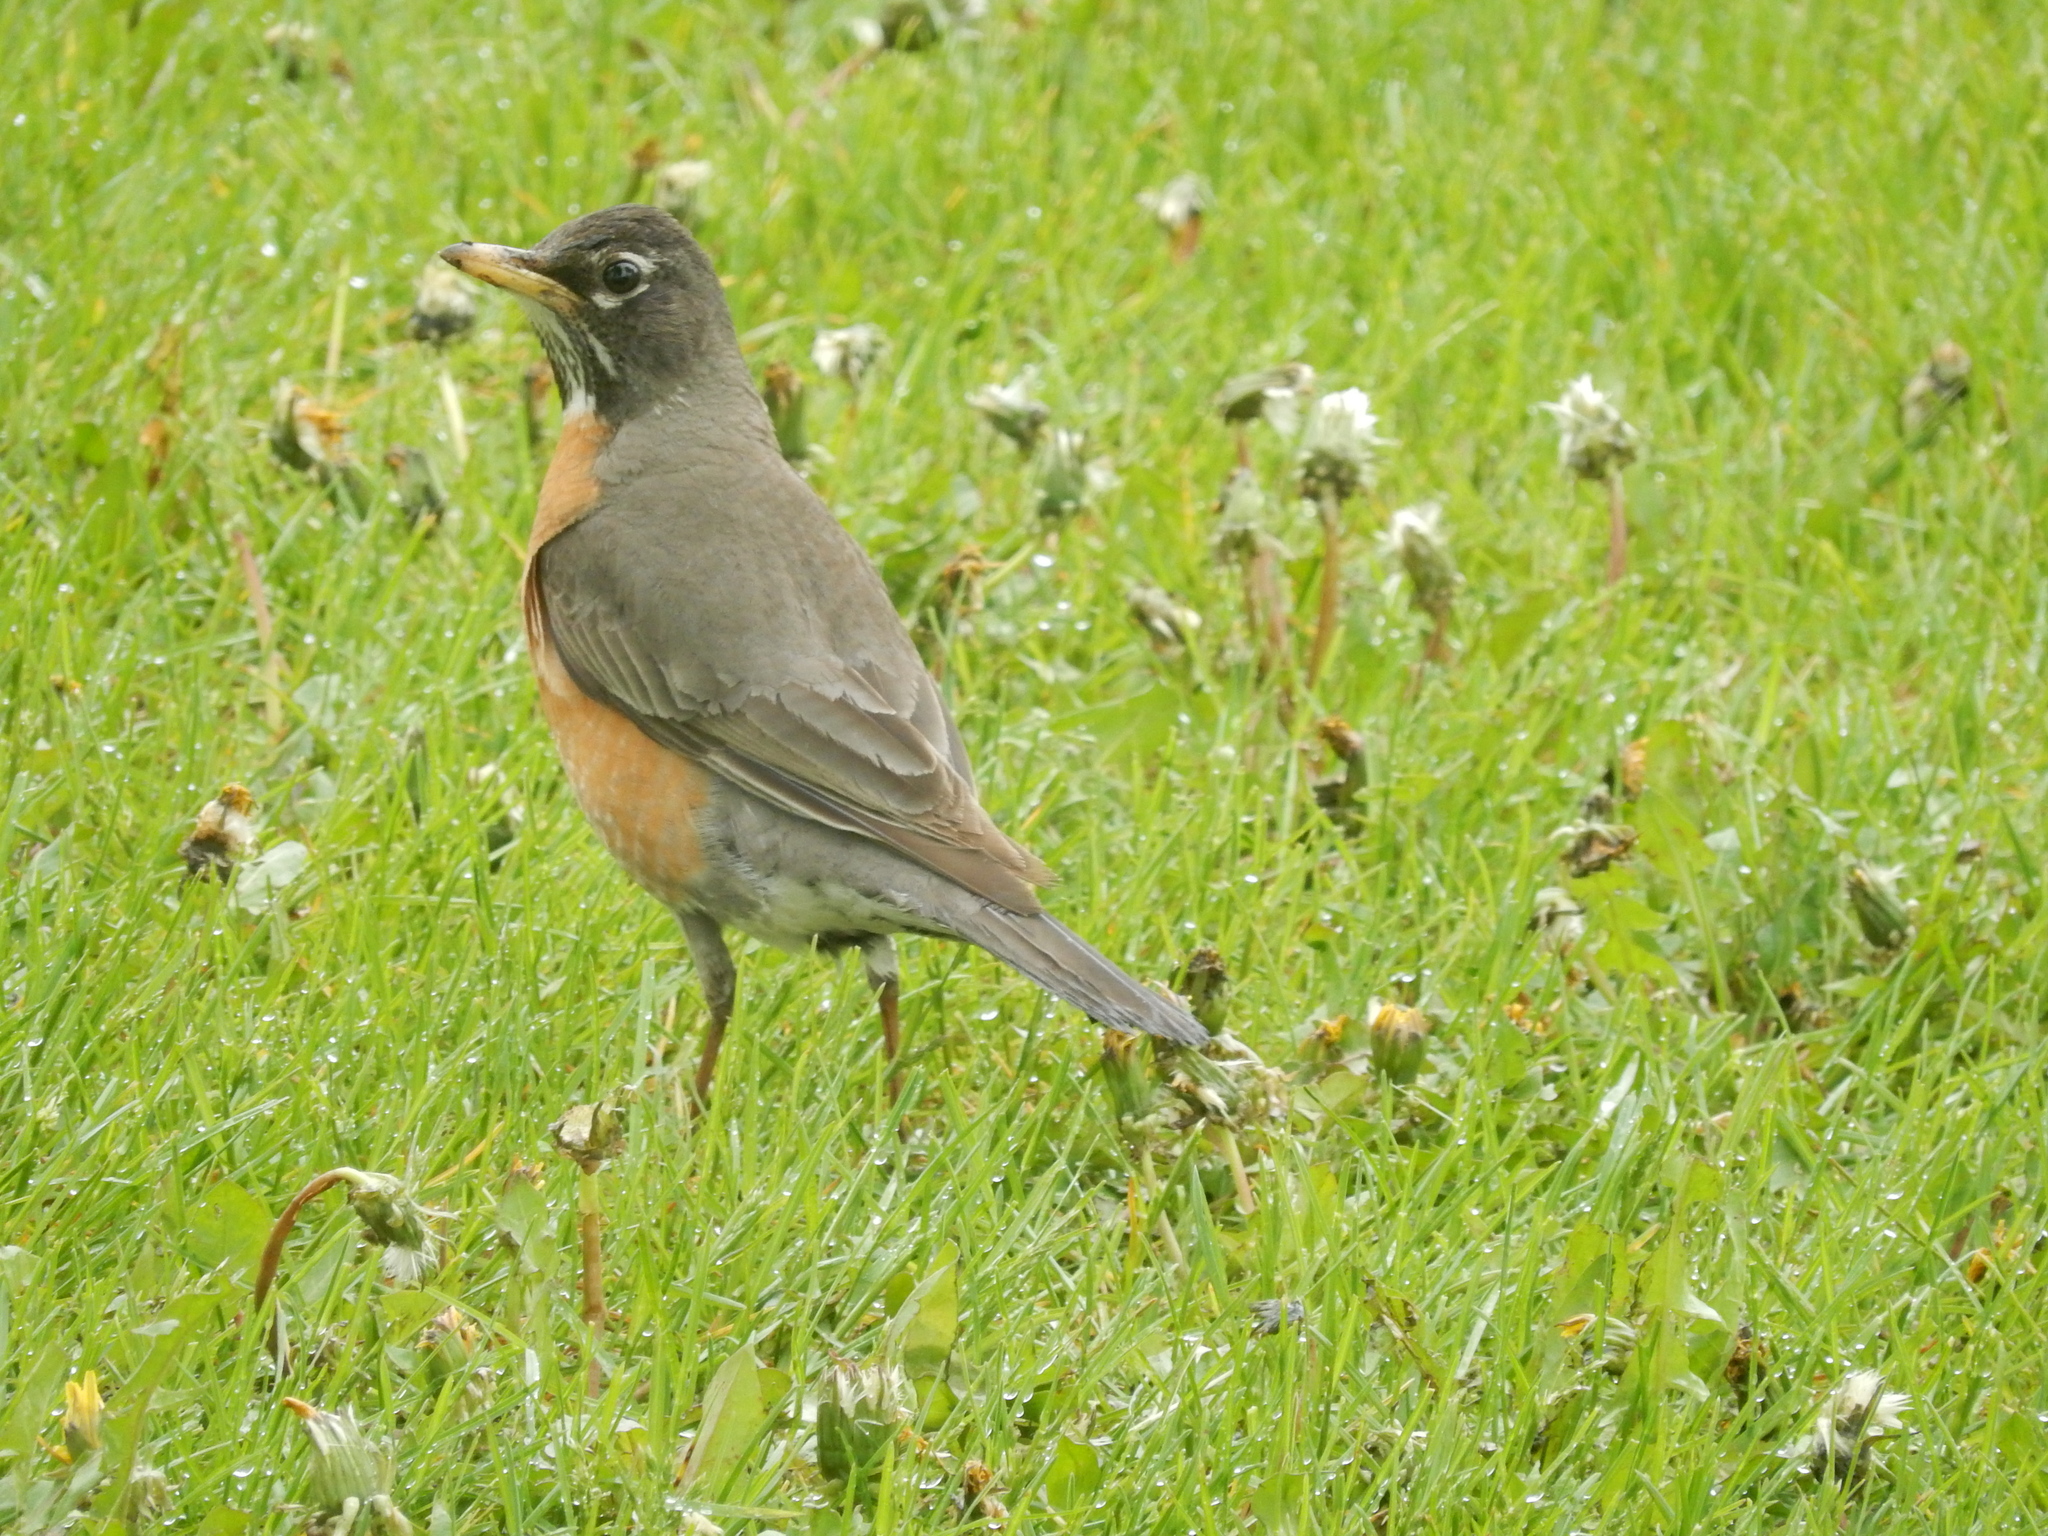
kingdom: Animalia
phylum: Chordata
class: Aves
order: Passeriformes
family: Turdidae
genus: Turdus
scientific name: Turdus migratorius
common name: American robin
